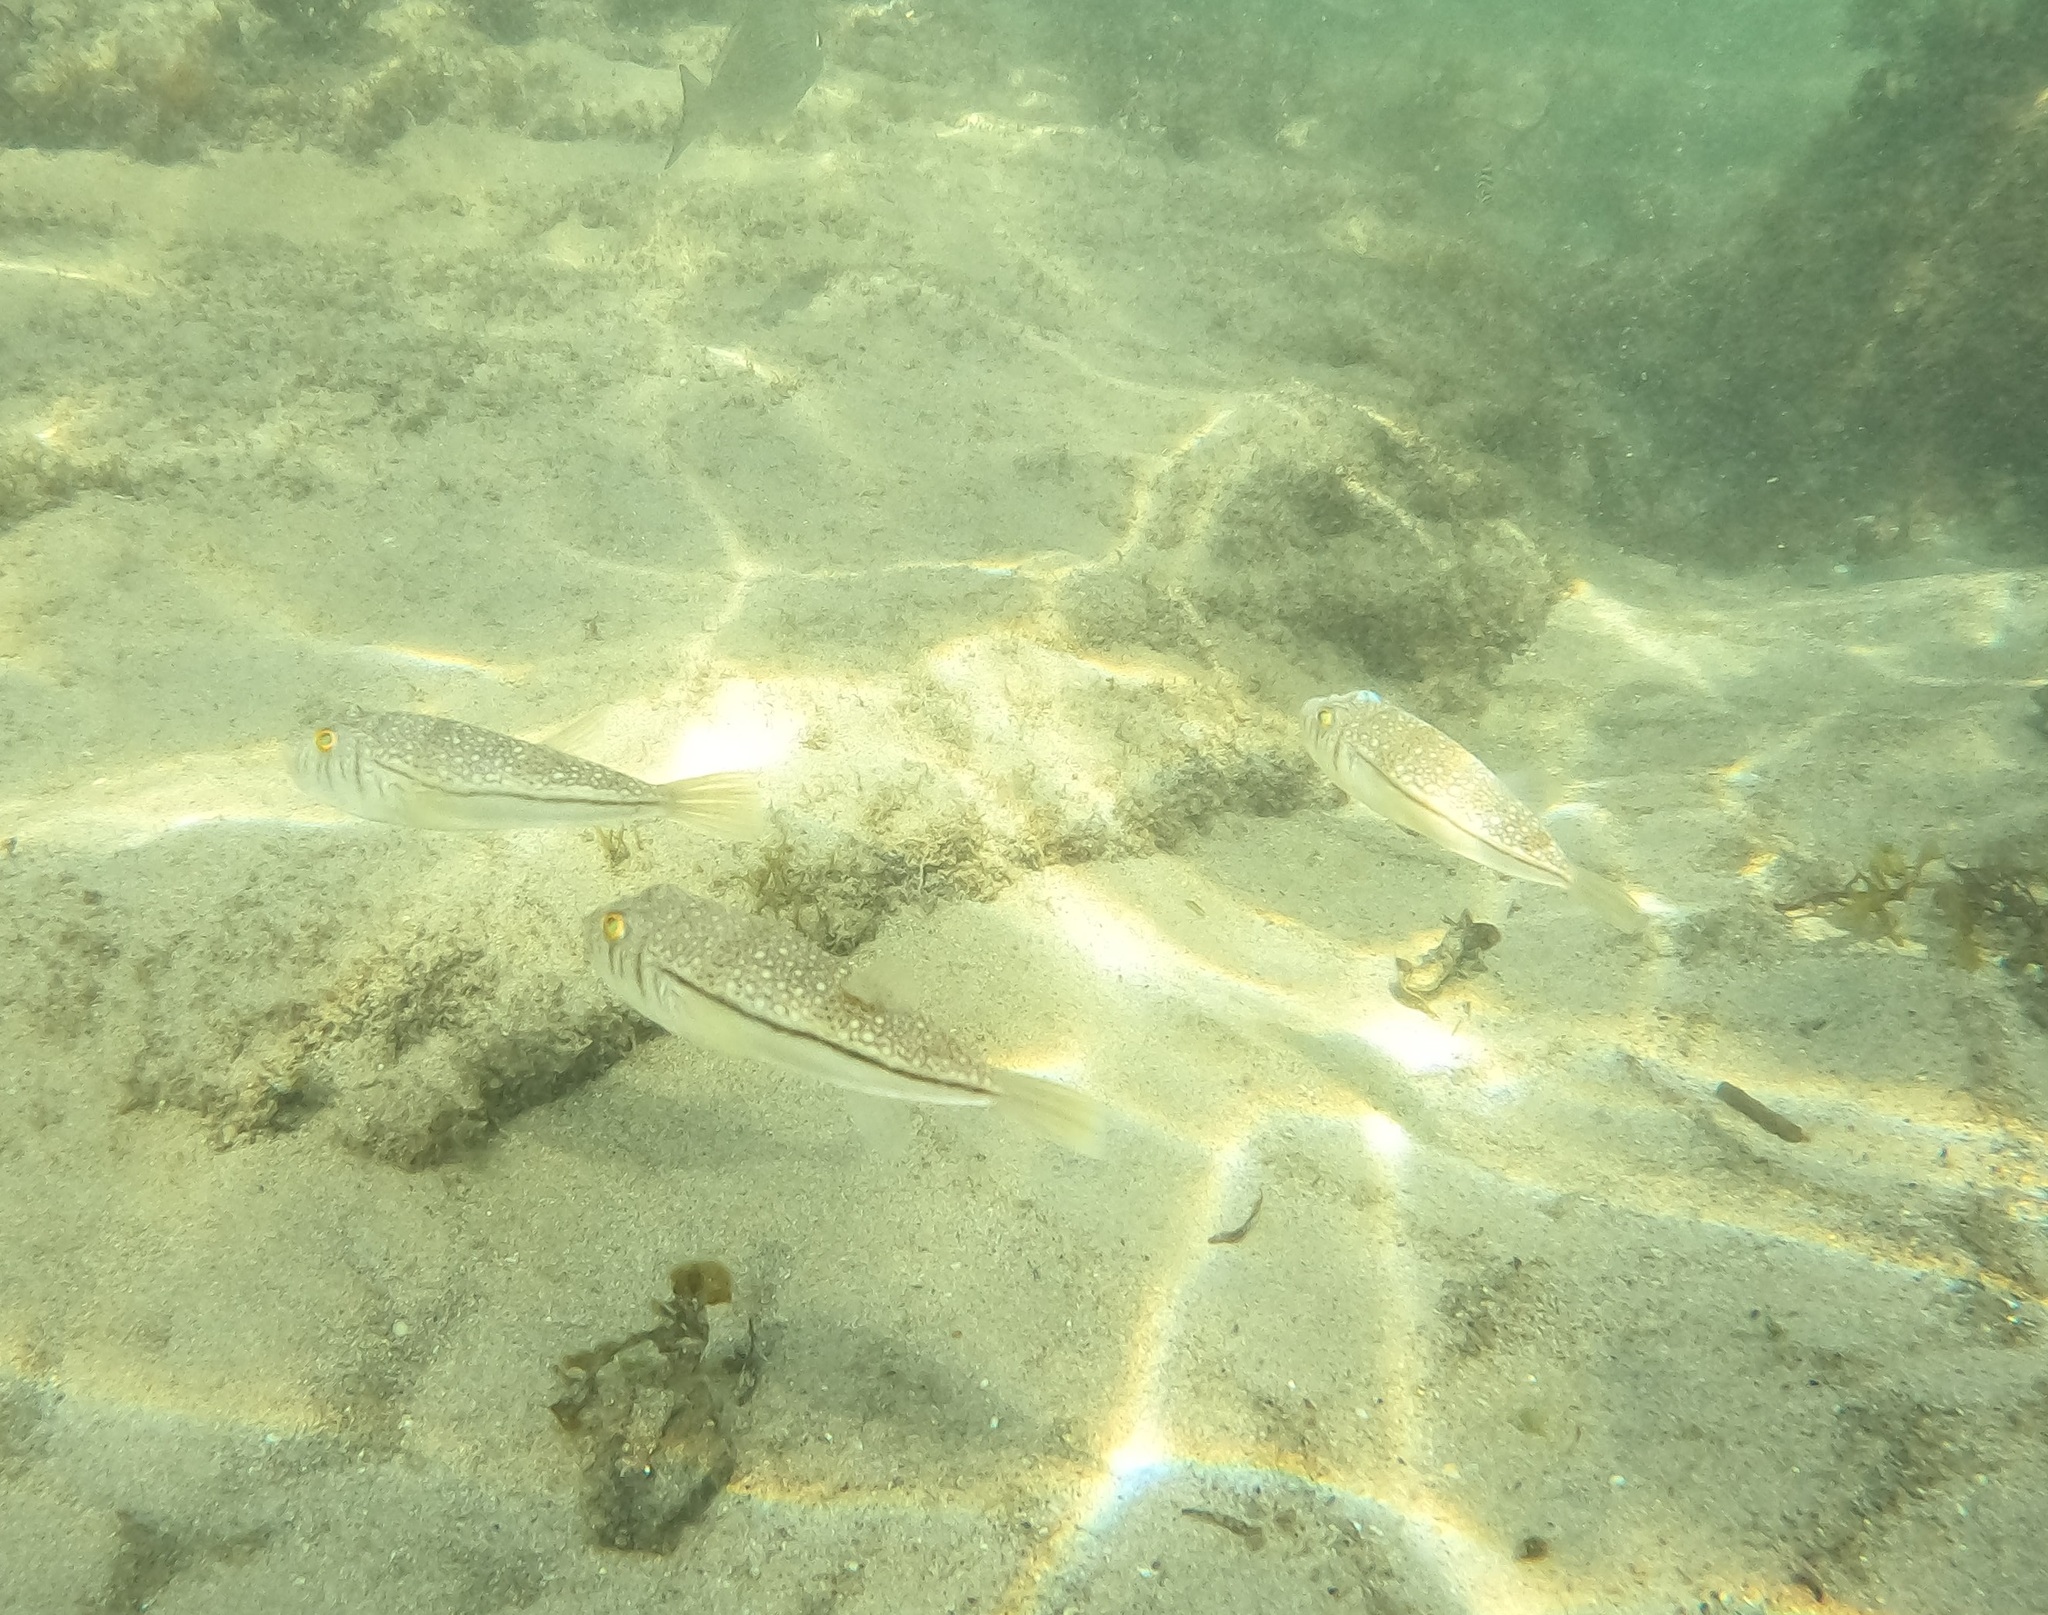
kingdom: Animalia
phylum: Chordata
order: Tetraodontiformes
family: Tetraodontidae
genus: Torquigener
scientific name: Torquigener pleurogramma
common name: Banded toadfish
